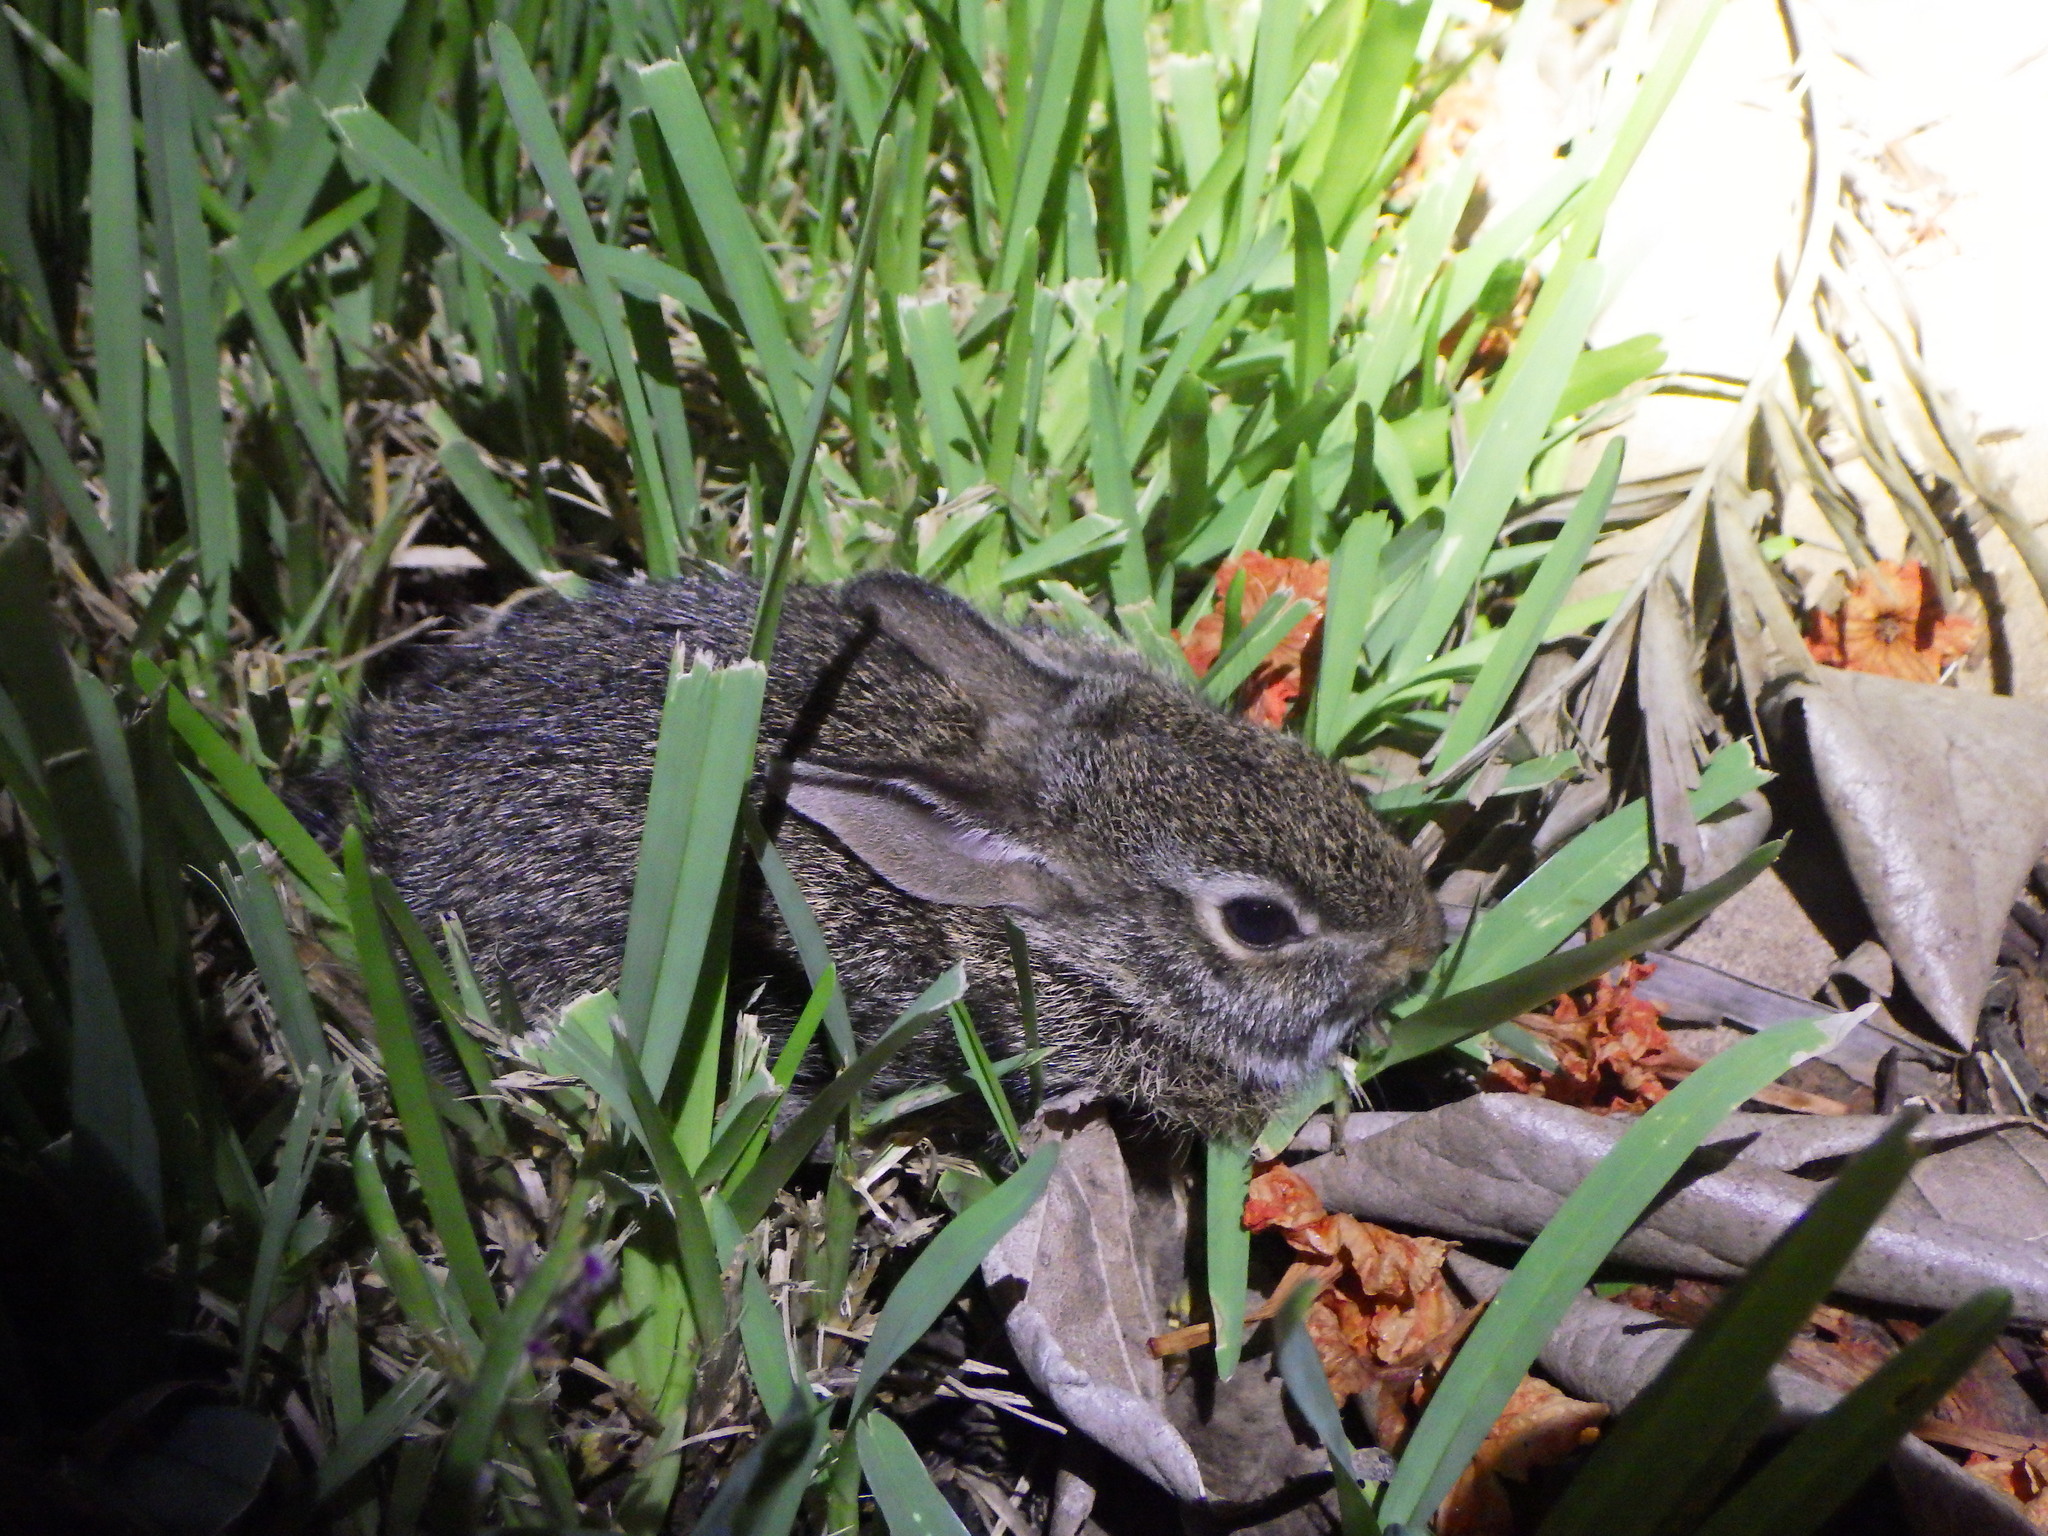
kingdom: Animalia
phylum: Chordata
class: Mammalia
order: Lagomorpha
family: Leporidae
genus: Sylvilagus
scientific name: Sylvilagus floridanus
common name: Eastern cottontail
